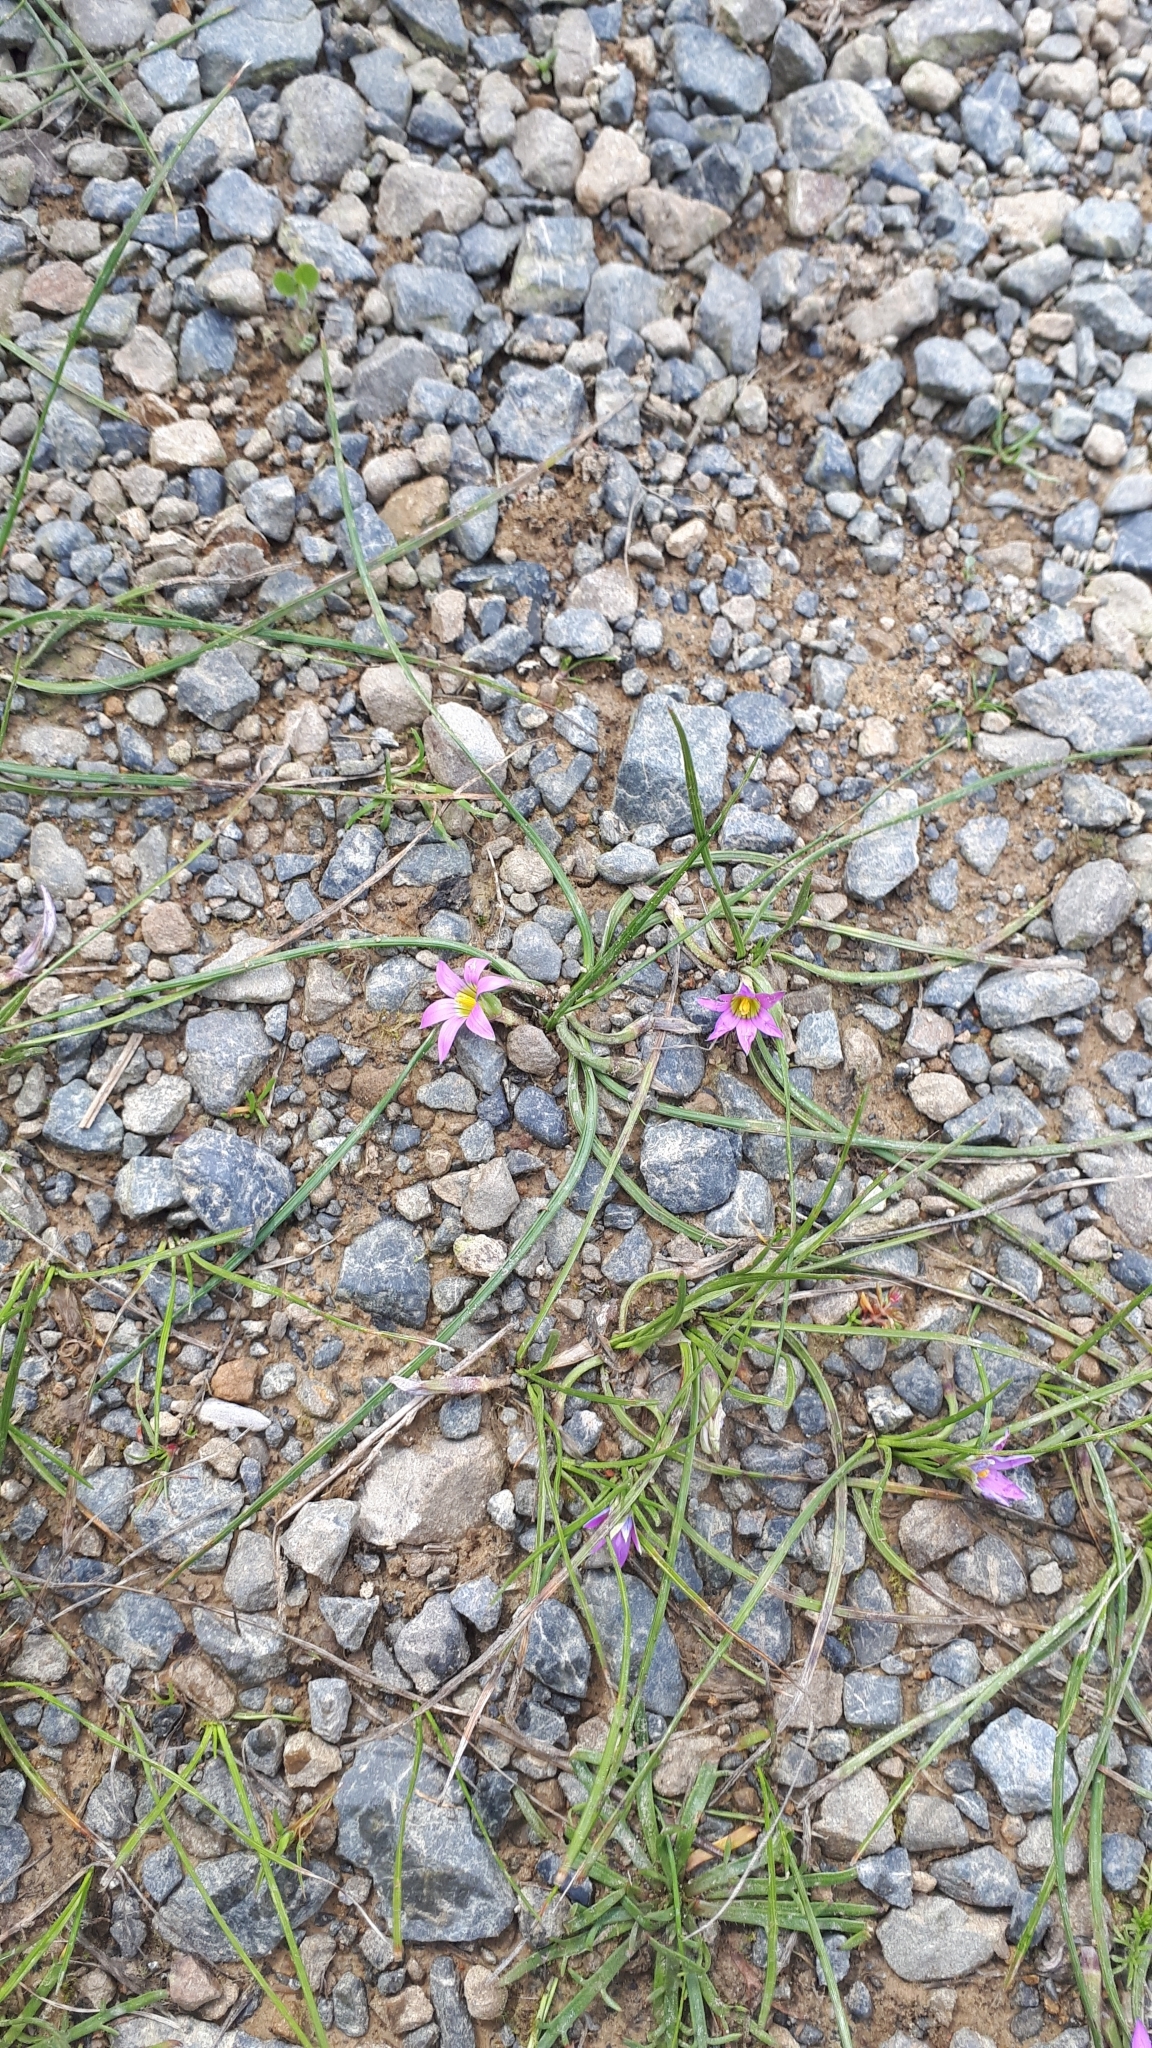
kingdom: Plantae
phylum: Tracheophyta
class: Liliopsida
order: Asparagales
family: Iridaceae
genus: Romulea
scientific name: Romulea rosea
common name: Oniongrass
